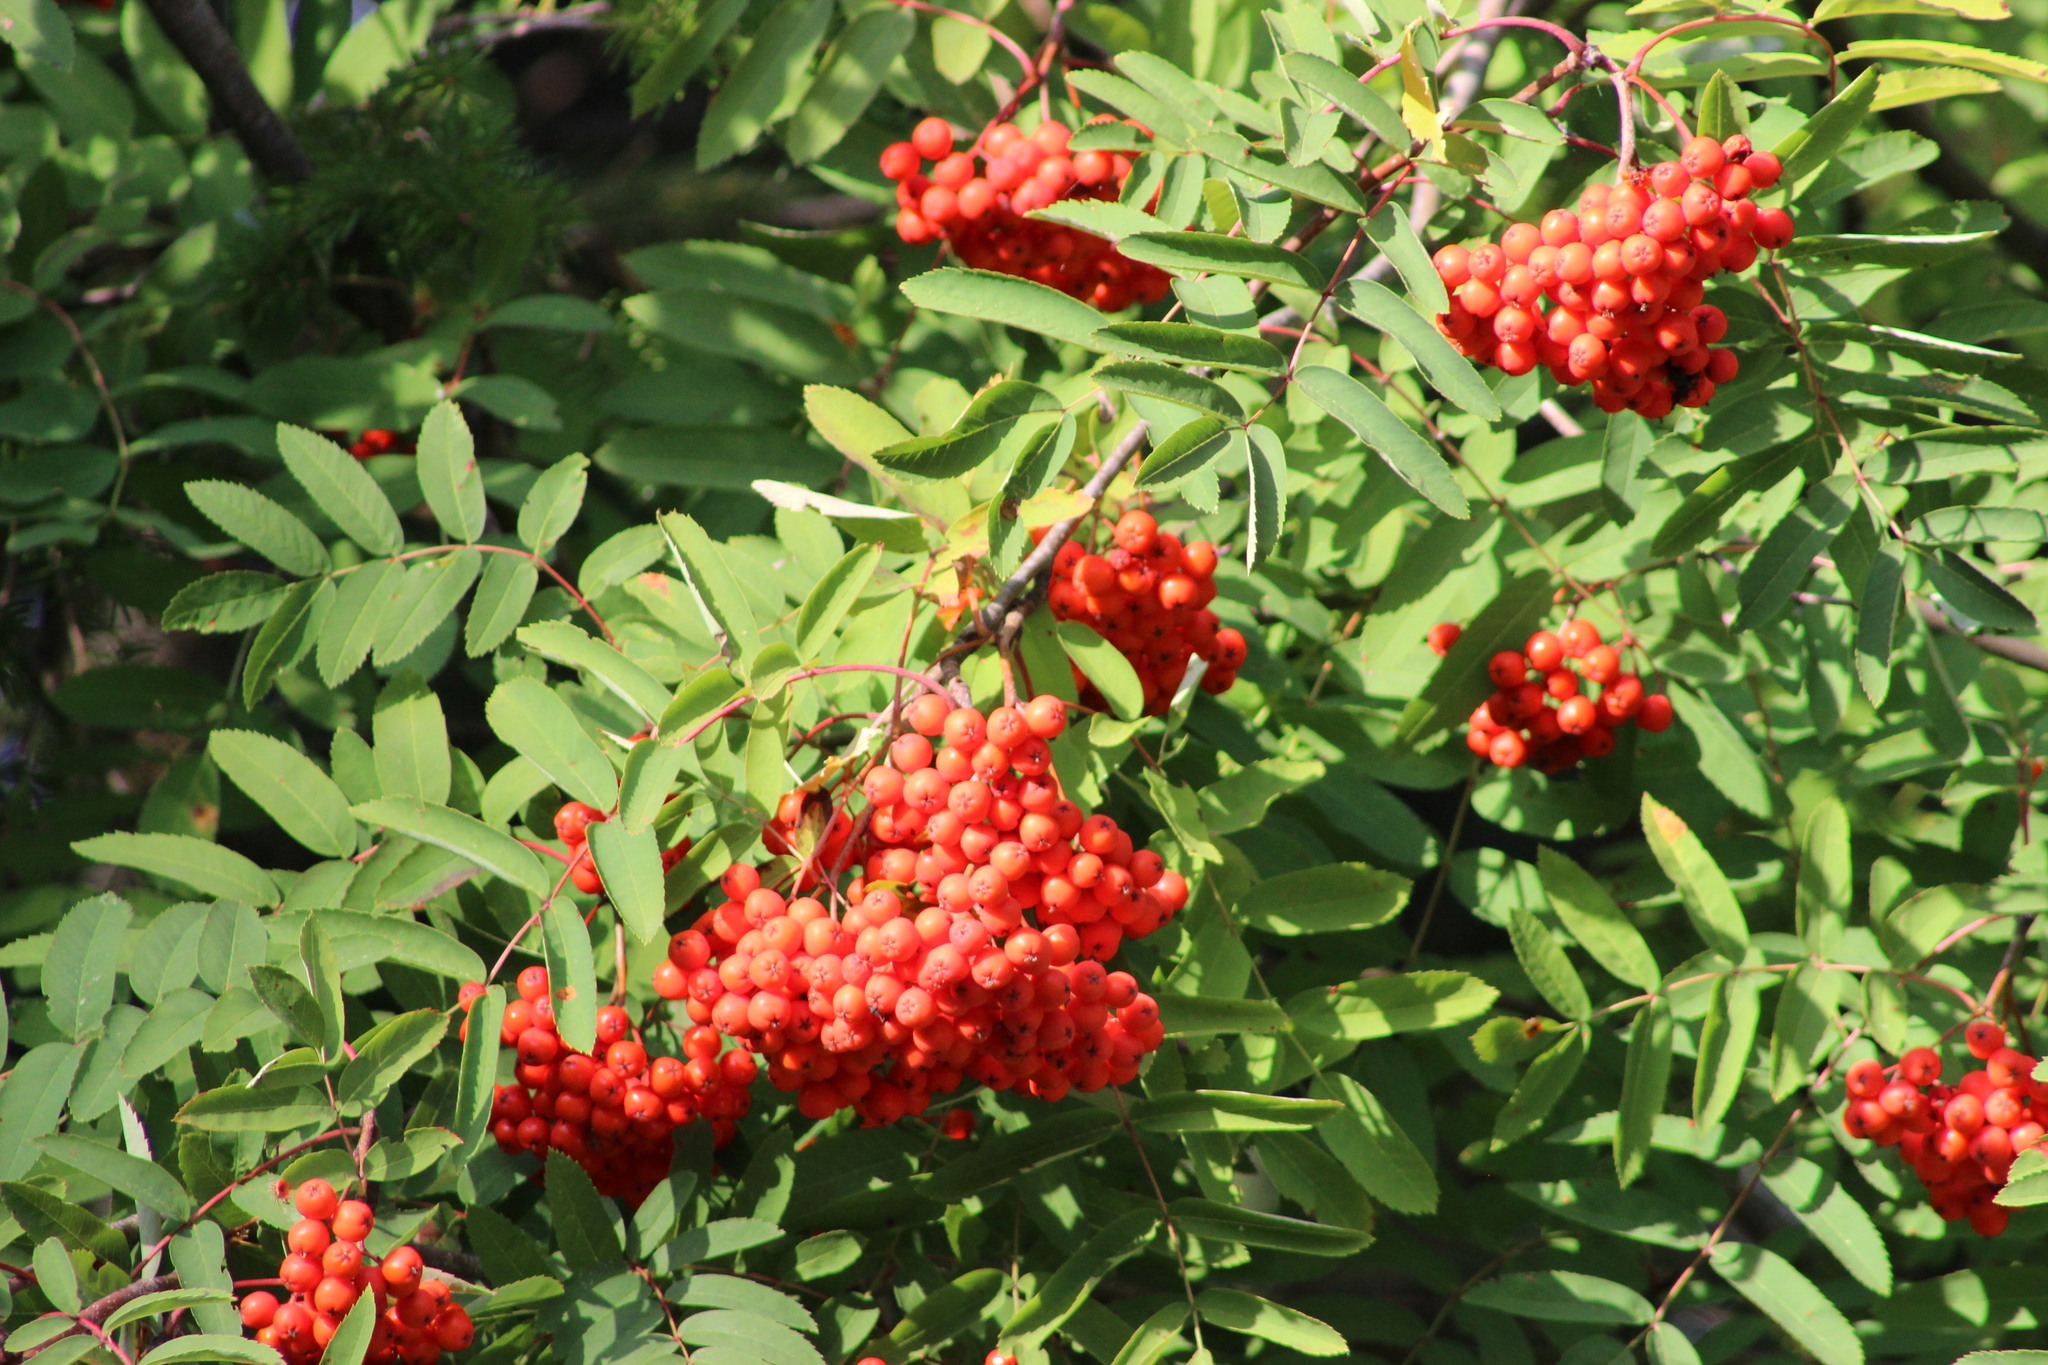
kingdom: Plantae
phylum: Tracheophyta
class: Magnoliopsida
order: Rosales
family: Rosaceae
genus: Sorbus
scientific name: Sorbus aucuparia
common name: Rowan
